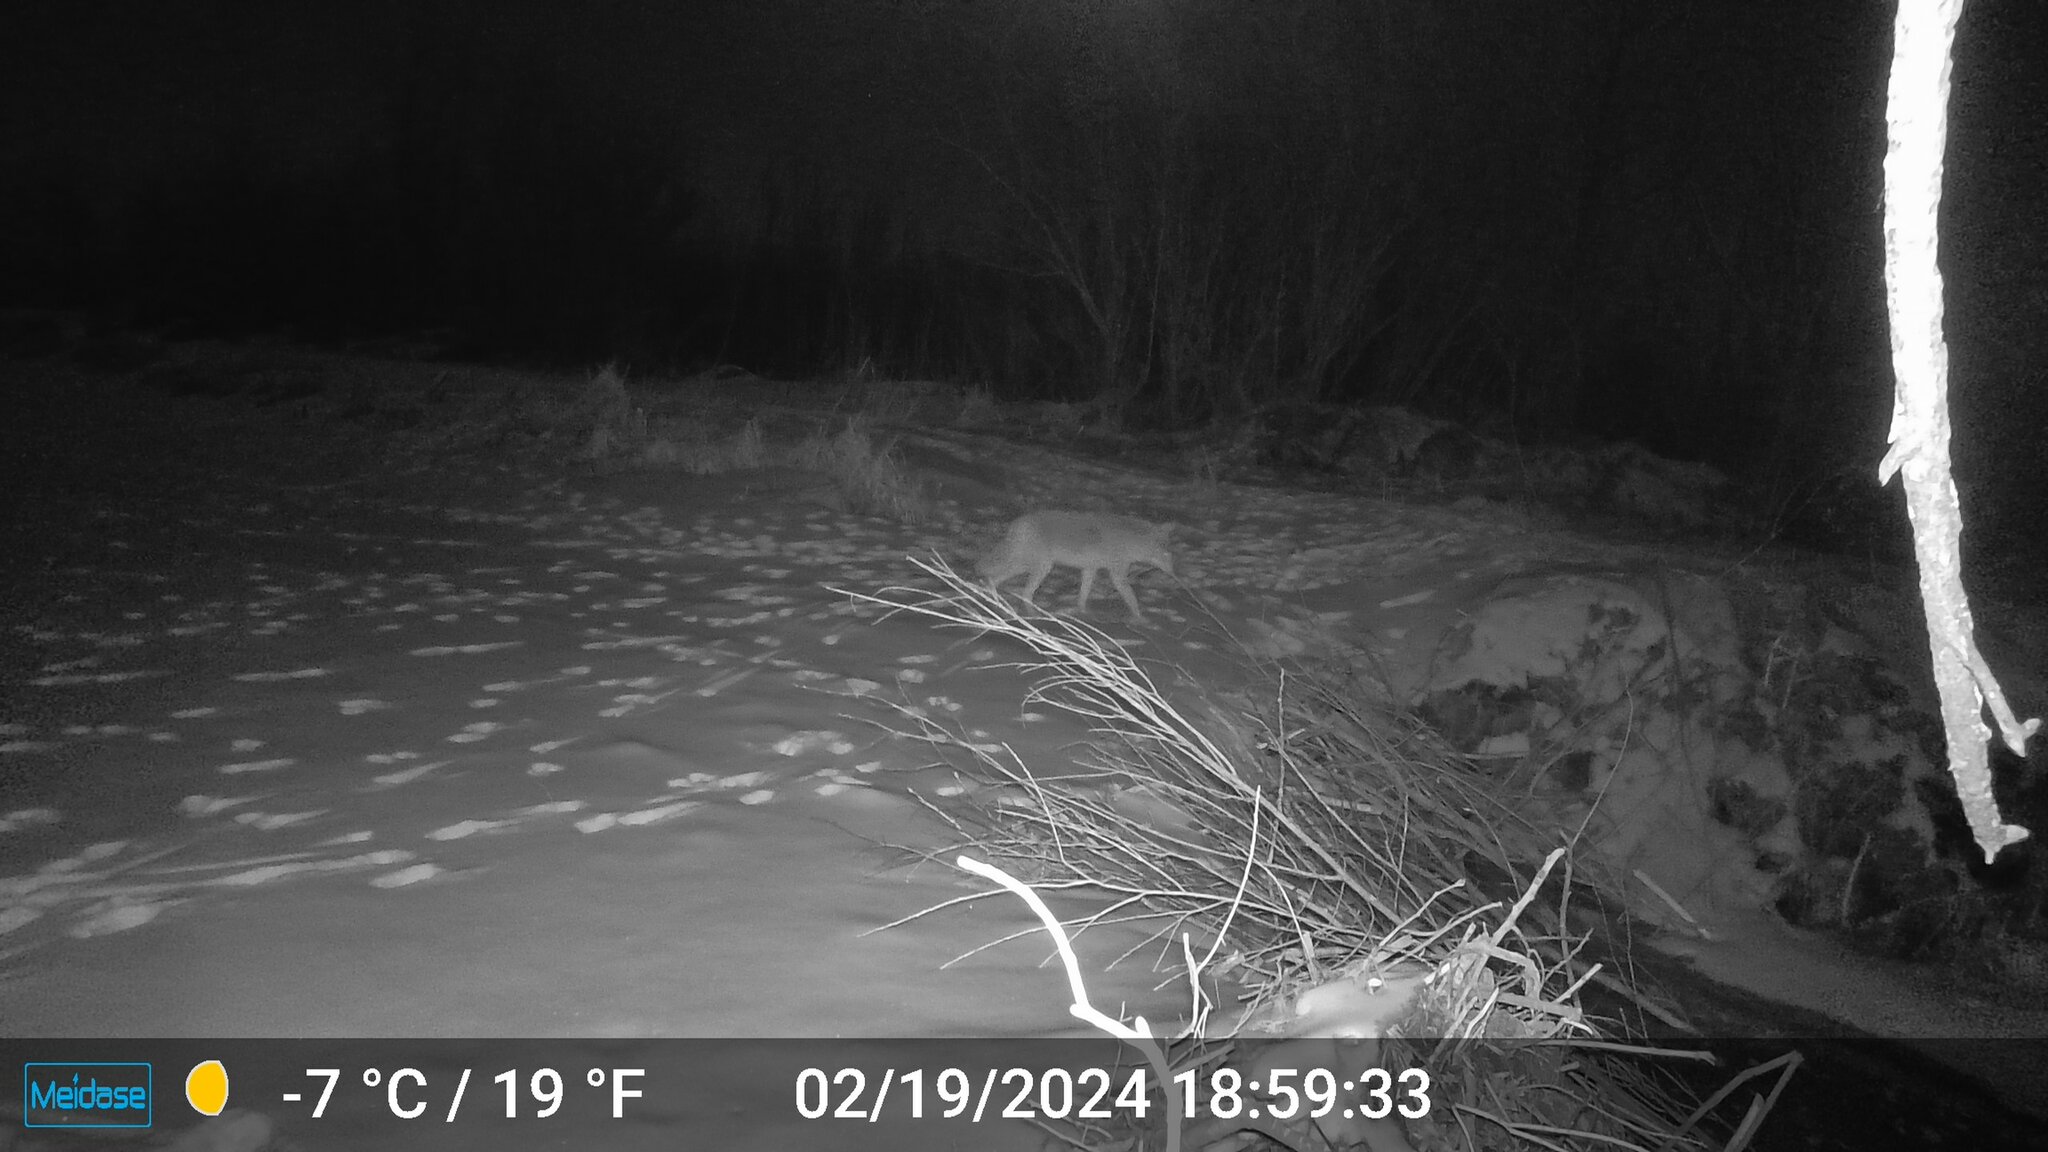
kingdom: Animalia
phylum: Chordata
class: Mammalia
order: Carnivora
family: Canidae
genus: Canis
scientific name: Canis latrans
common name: Coyote
